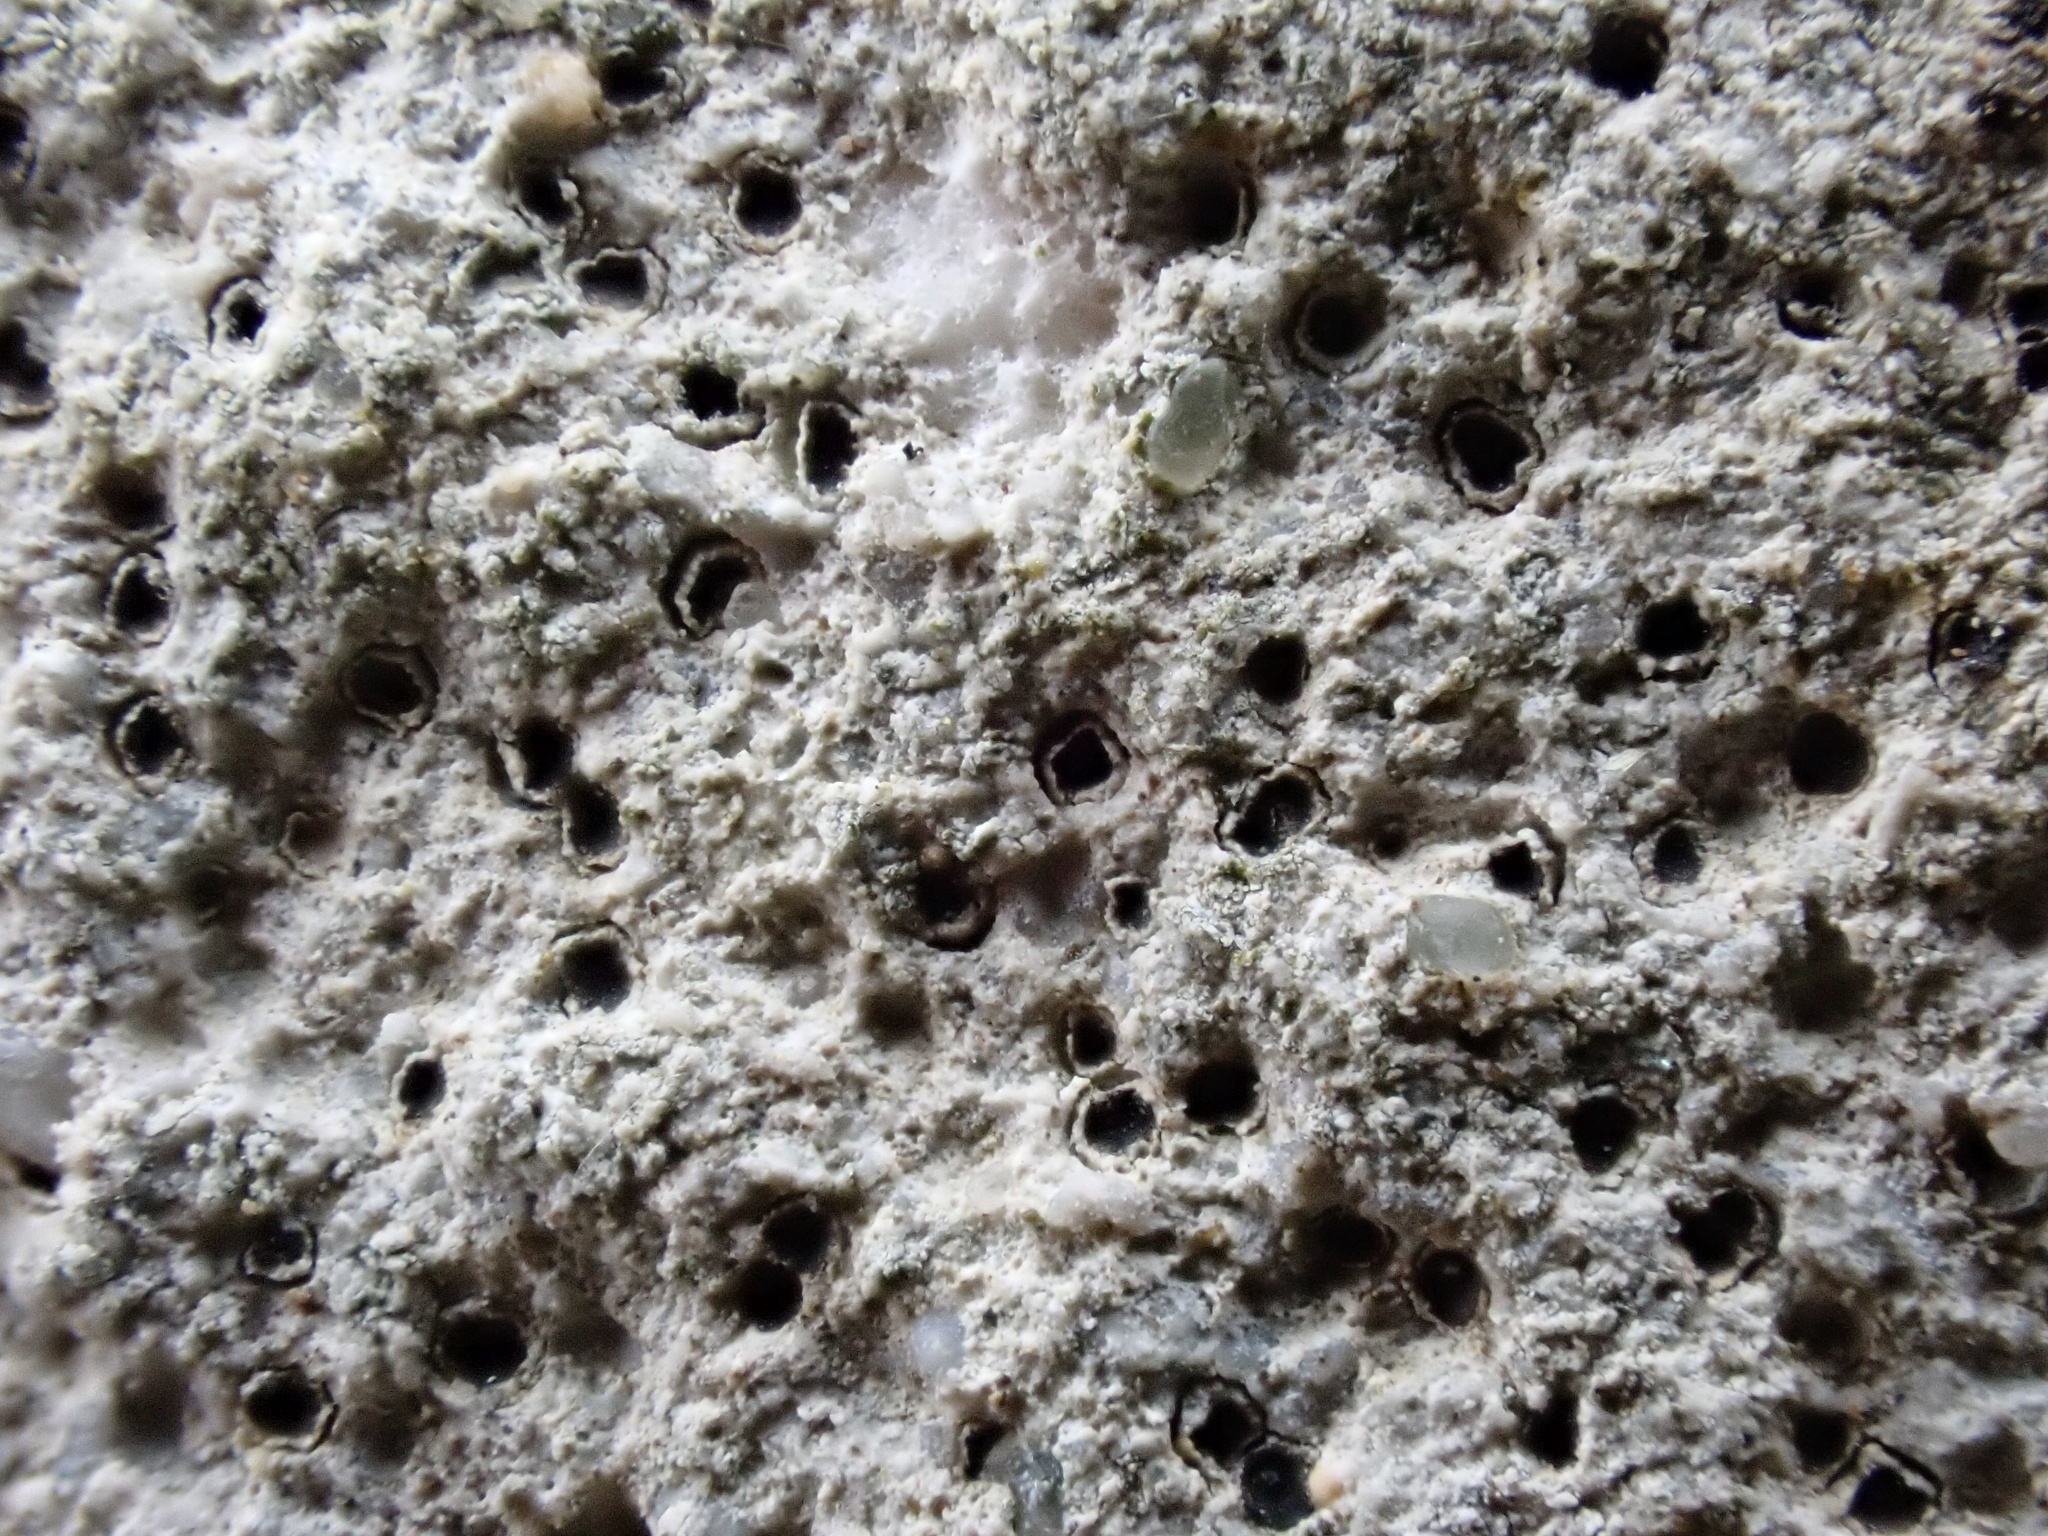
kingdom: Fungi
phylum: Ascomycota
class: Eurotiomycetes
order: Verrucariales
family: Verrucariaceae
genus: Verrucaria
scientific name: Verrucaria hochstetteri
